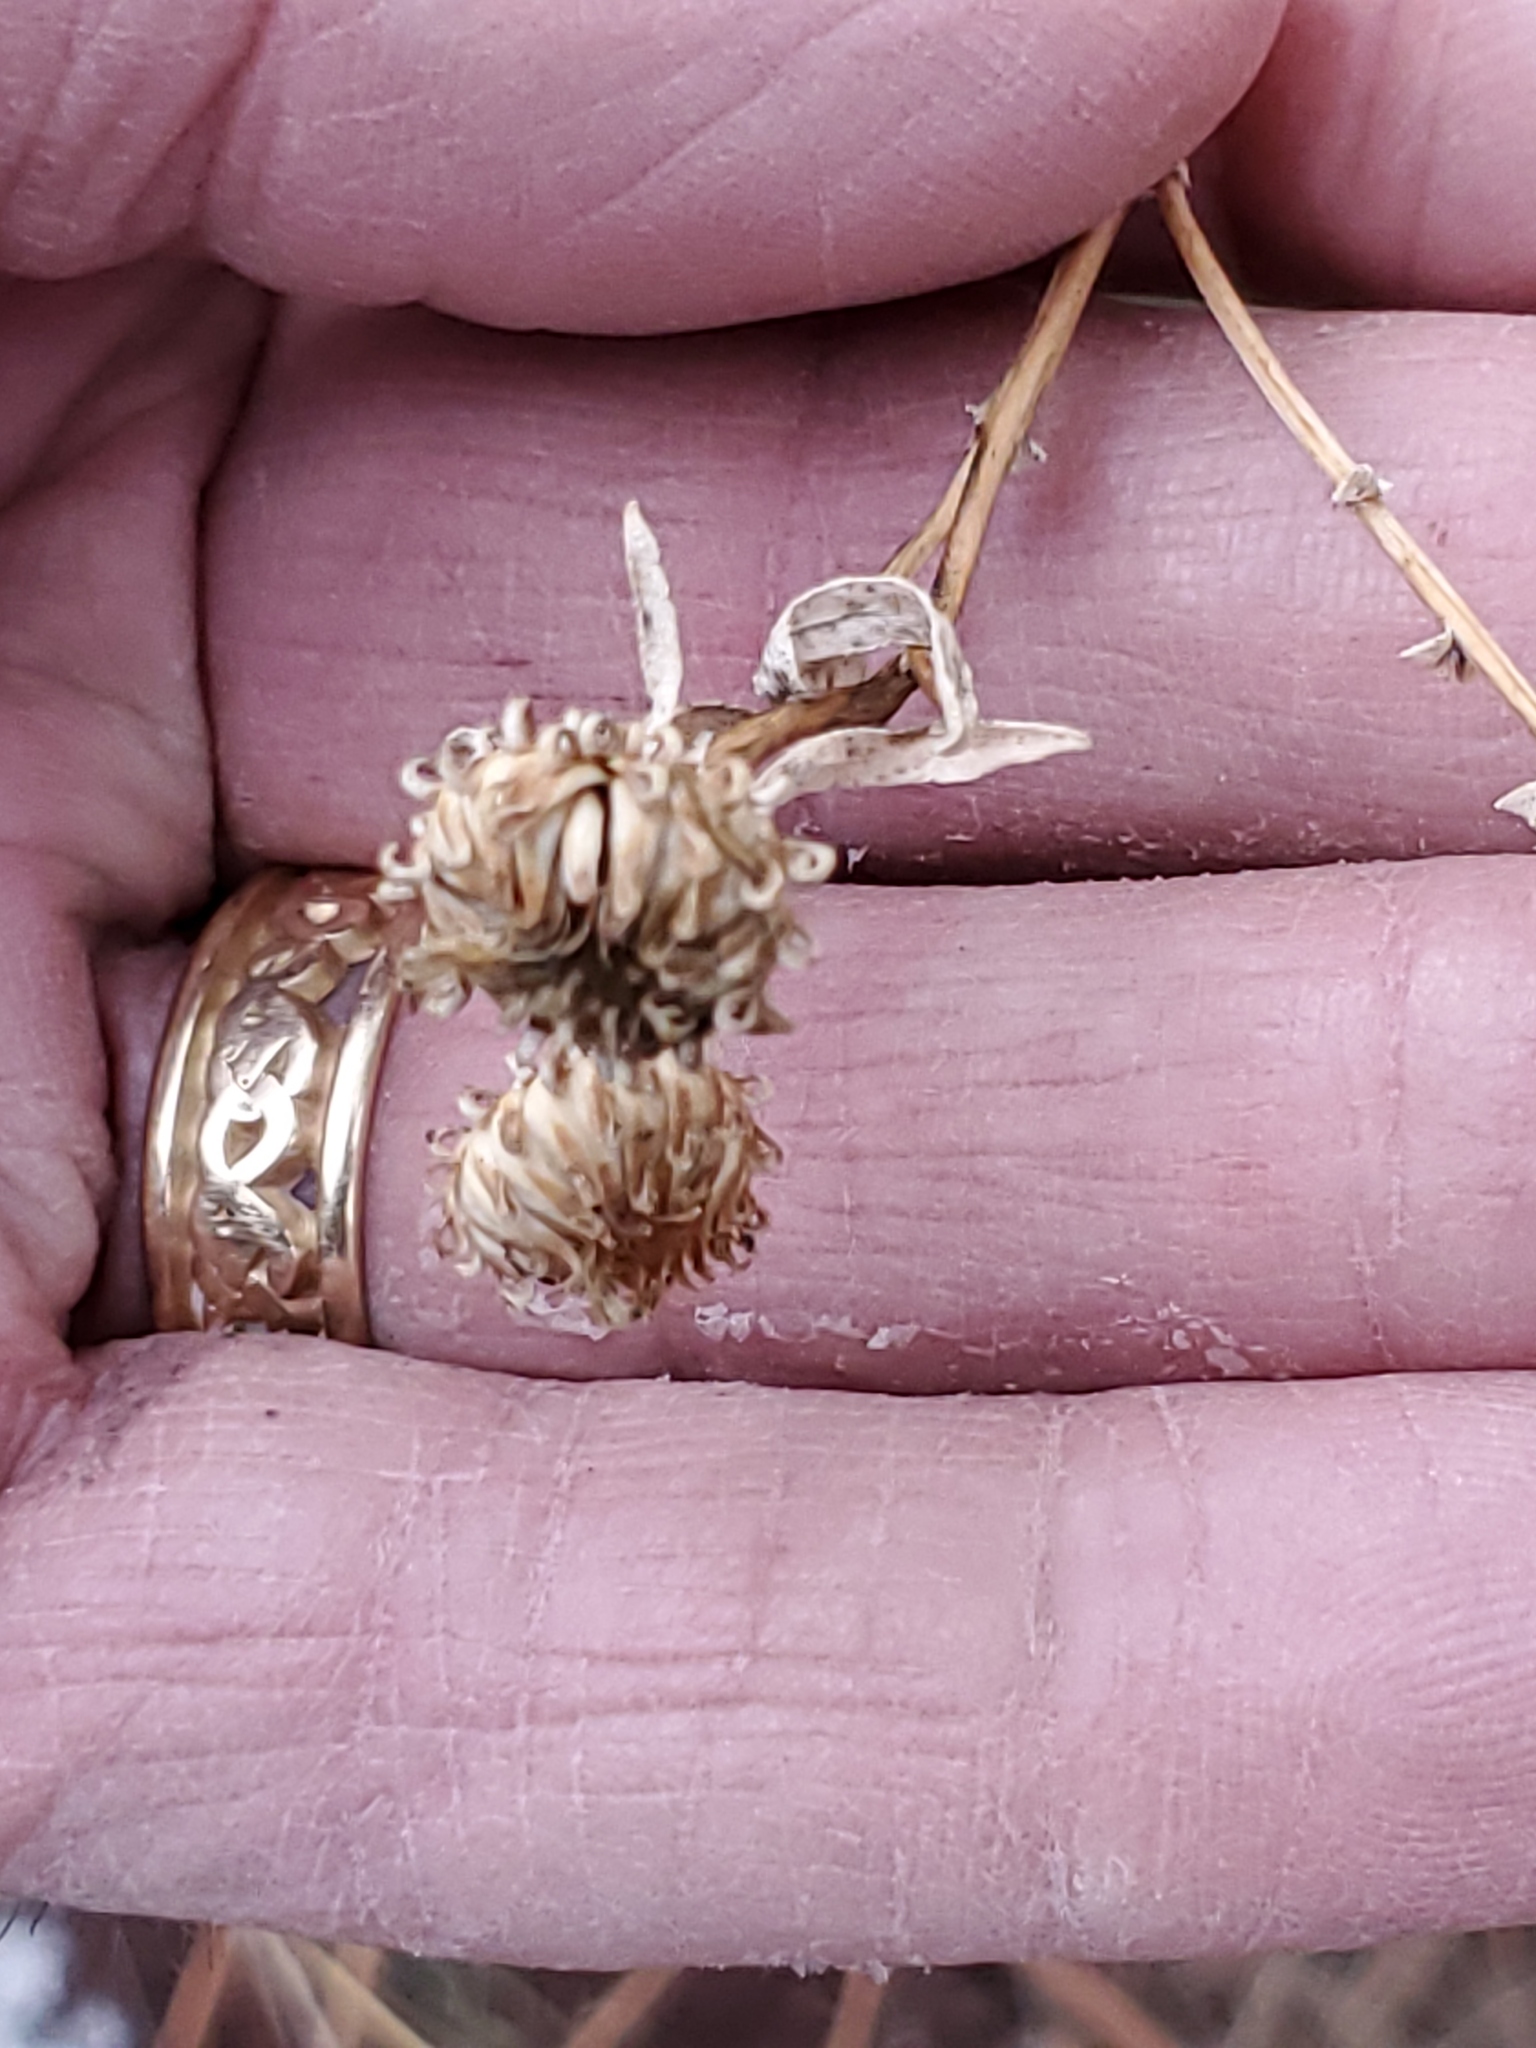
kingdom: Plantae
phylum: Tracheophyta
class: Magnoliopsida
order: Asterales
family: Asteraceae
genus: Grindelia
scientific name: Grindelia squarrosa
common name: Curly-cup gumweed
